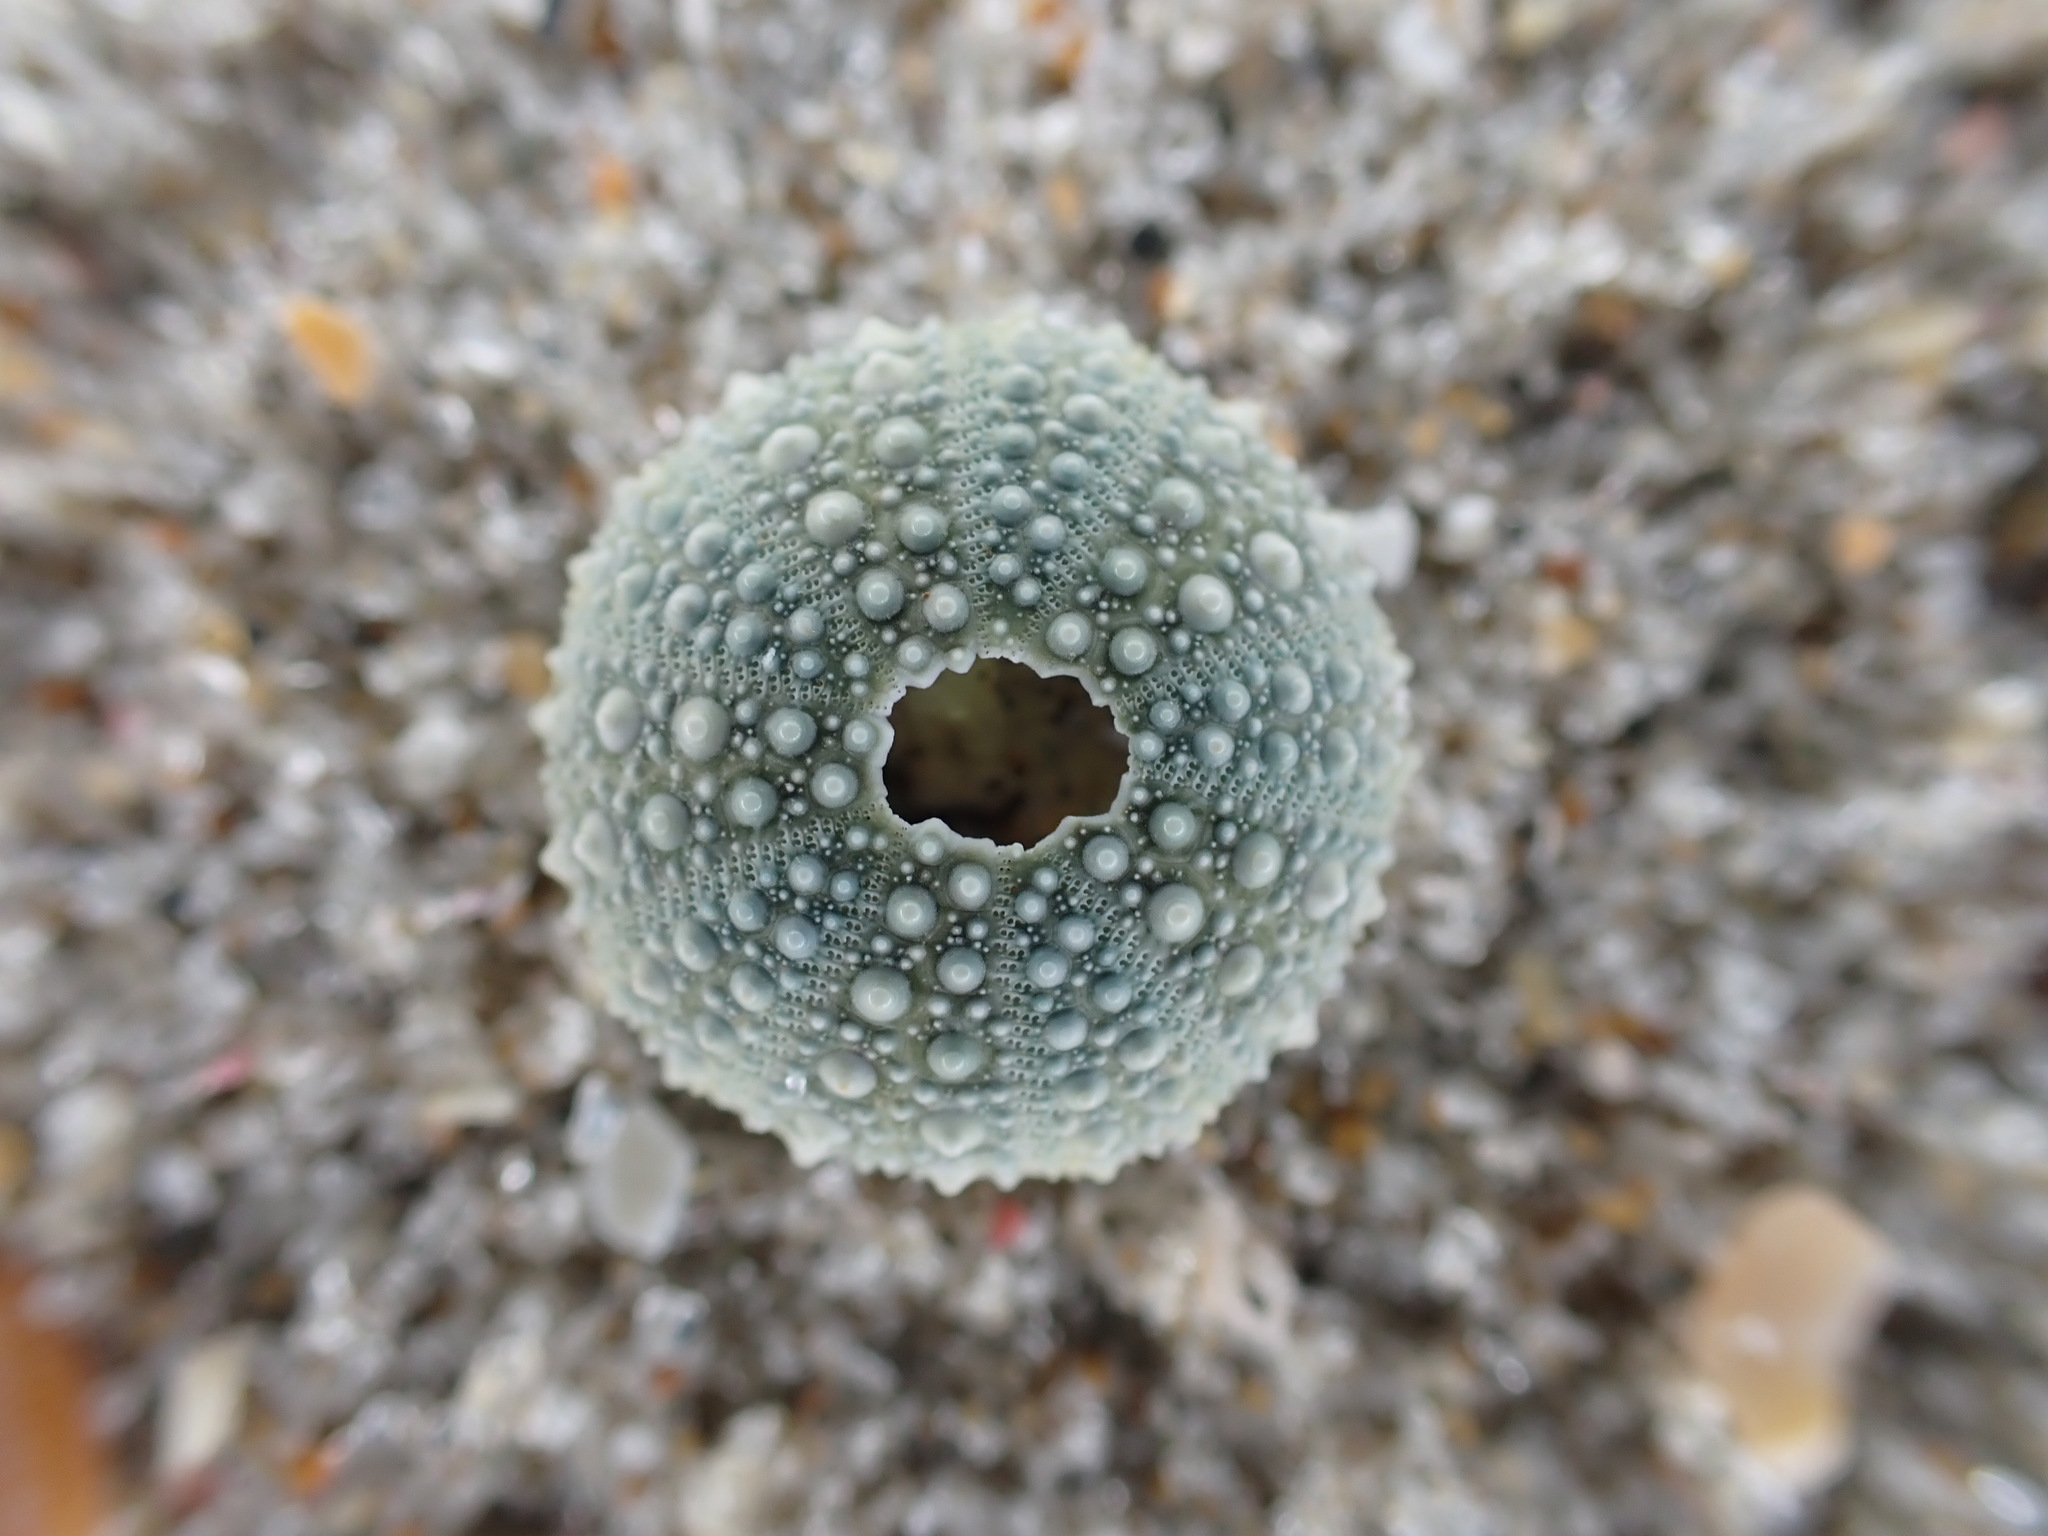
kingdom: Animalia
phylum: Echinodermata
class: Echinoidea
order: Camarodonta
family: Echinometridae
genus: Evechinus
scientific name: Evechinus chloroticus
